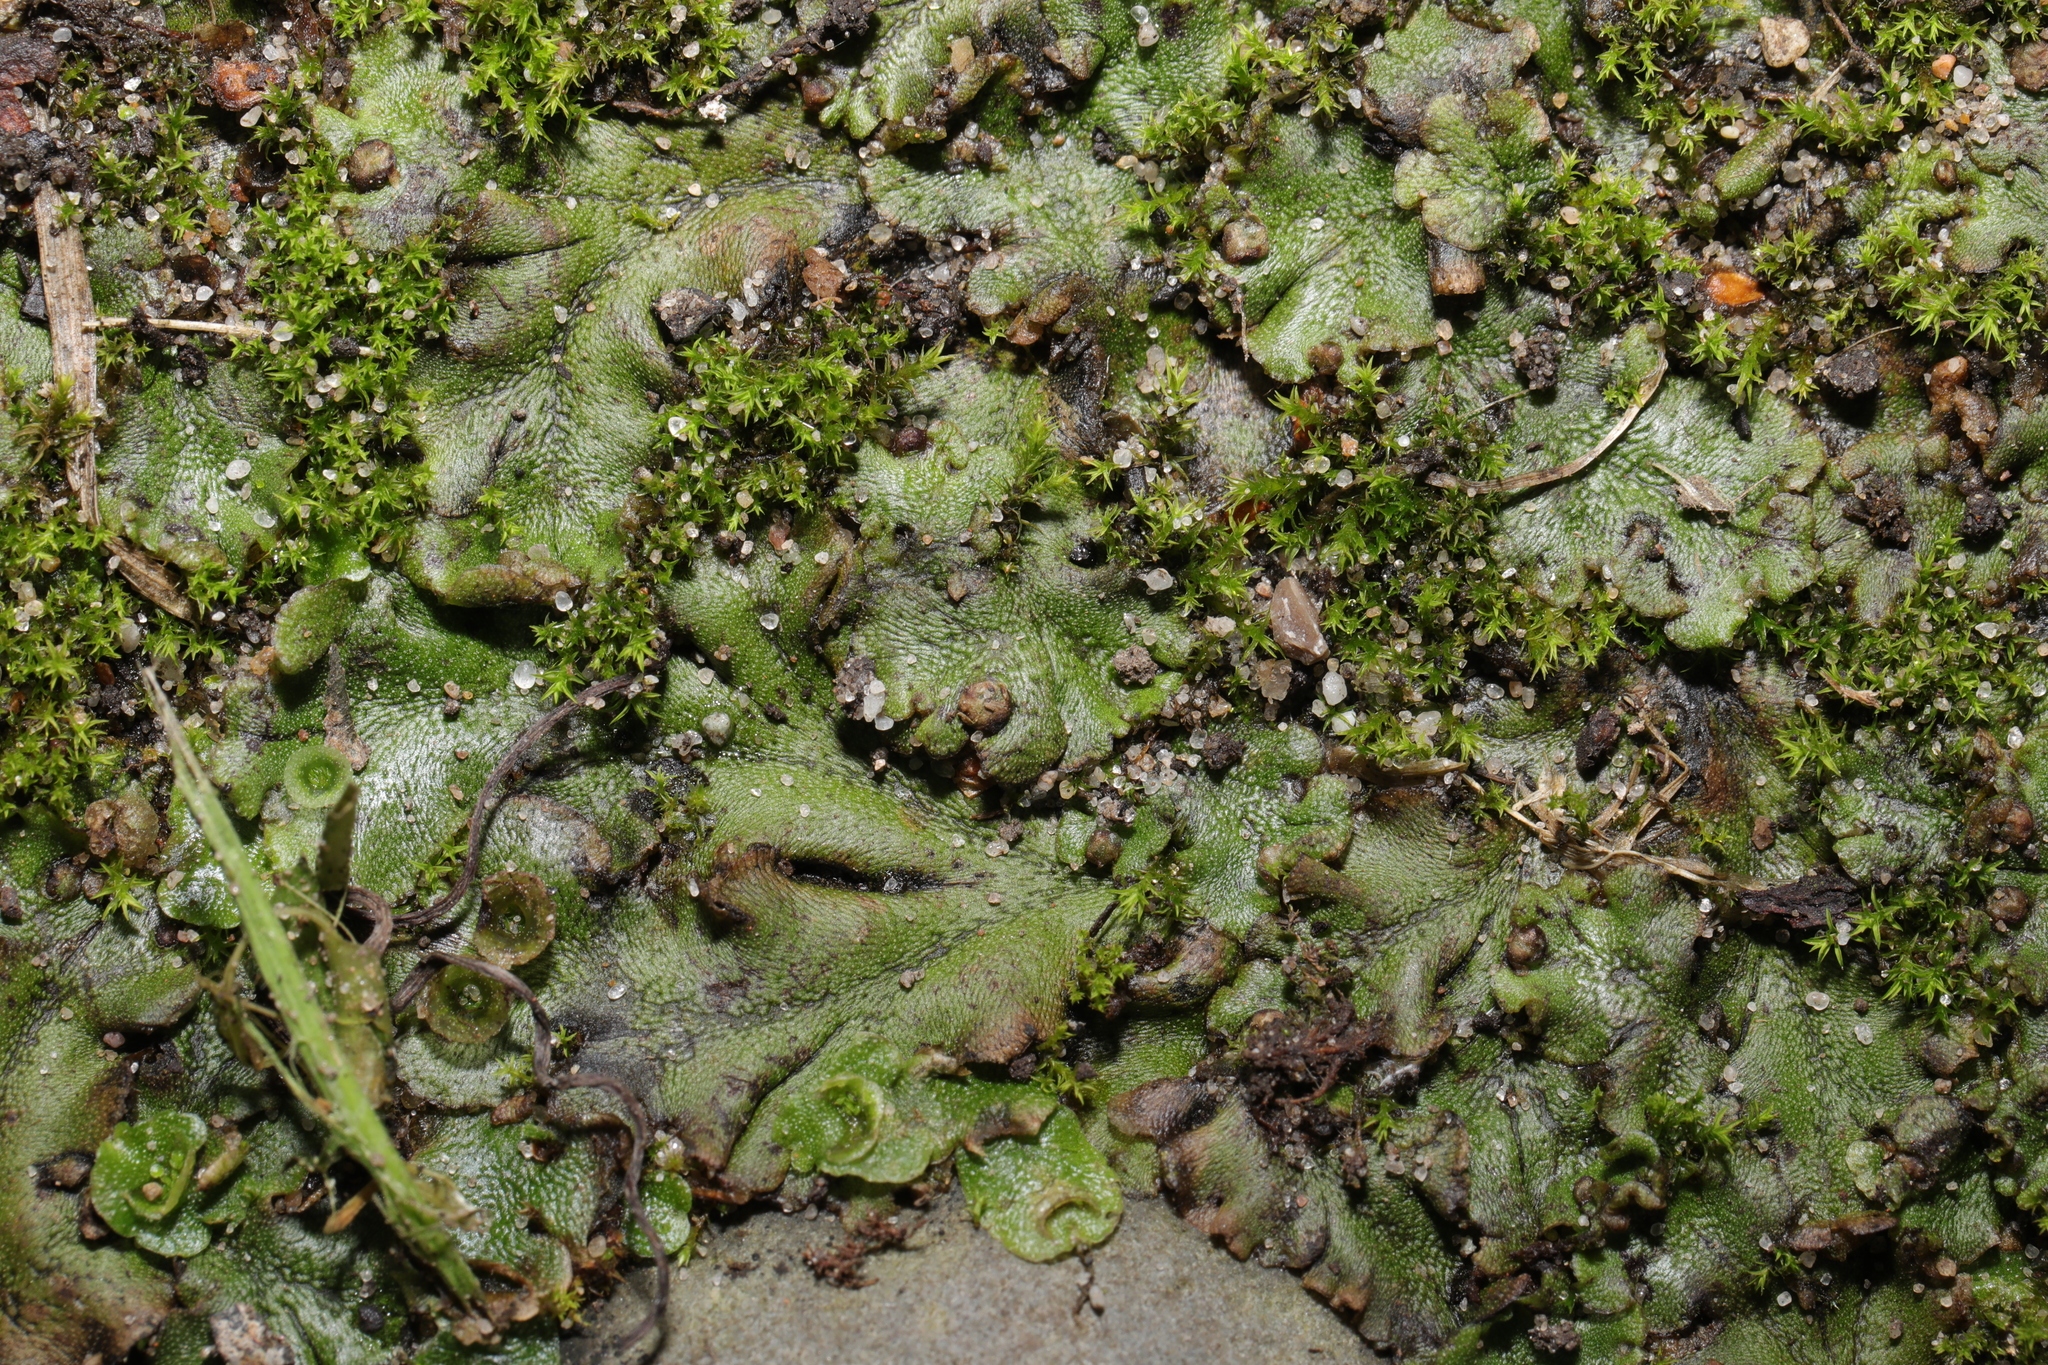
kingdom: Plantae
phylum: Marchantiophyta
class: Marchantiopsida
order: Lunulariales
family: Lunulariaceae
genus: Lunularia
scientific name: Lunularia cruciata
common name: Crescent-cup liverwort
